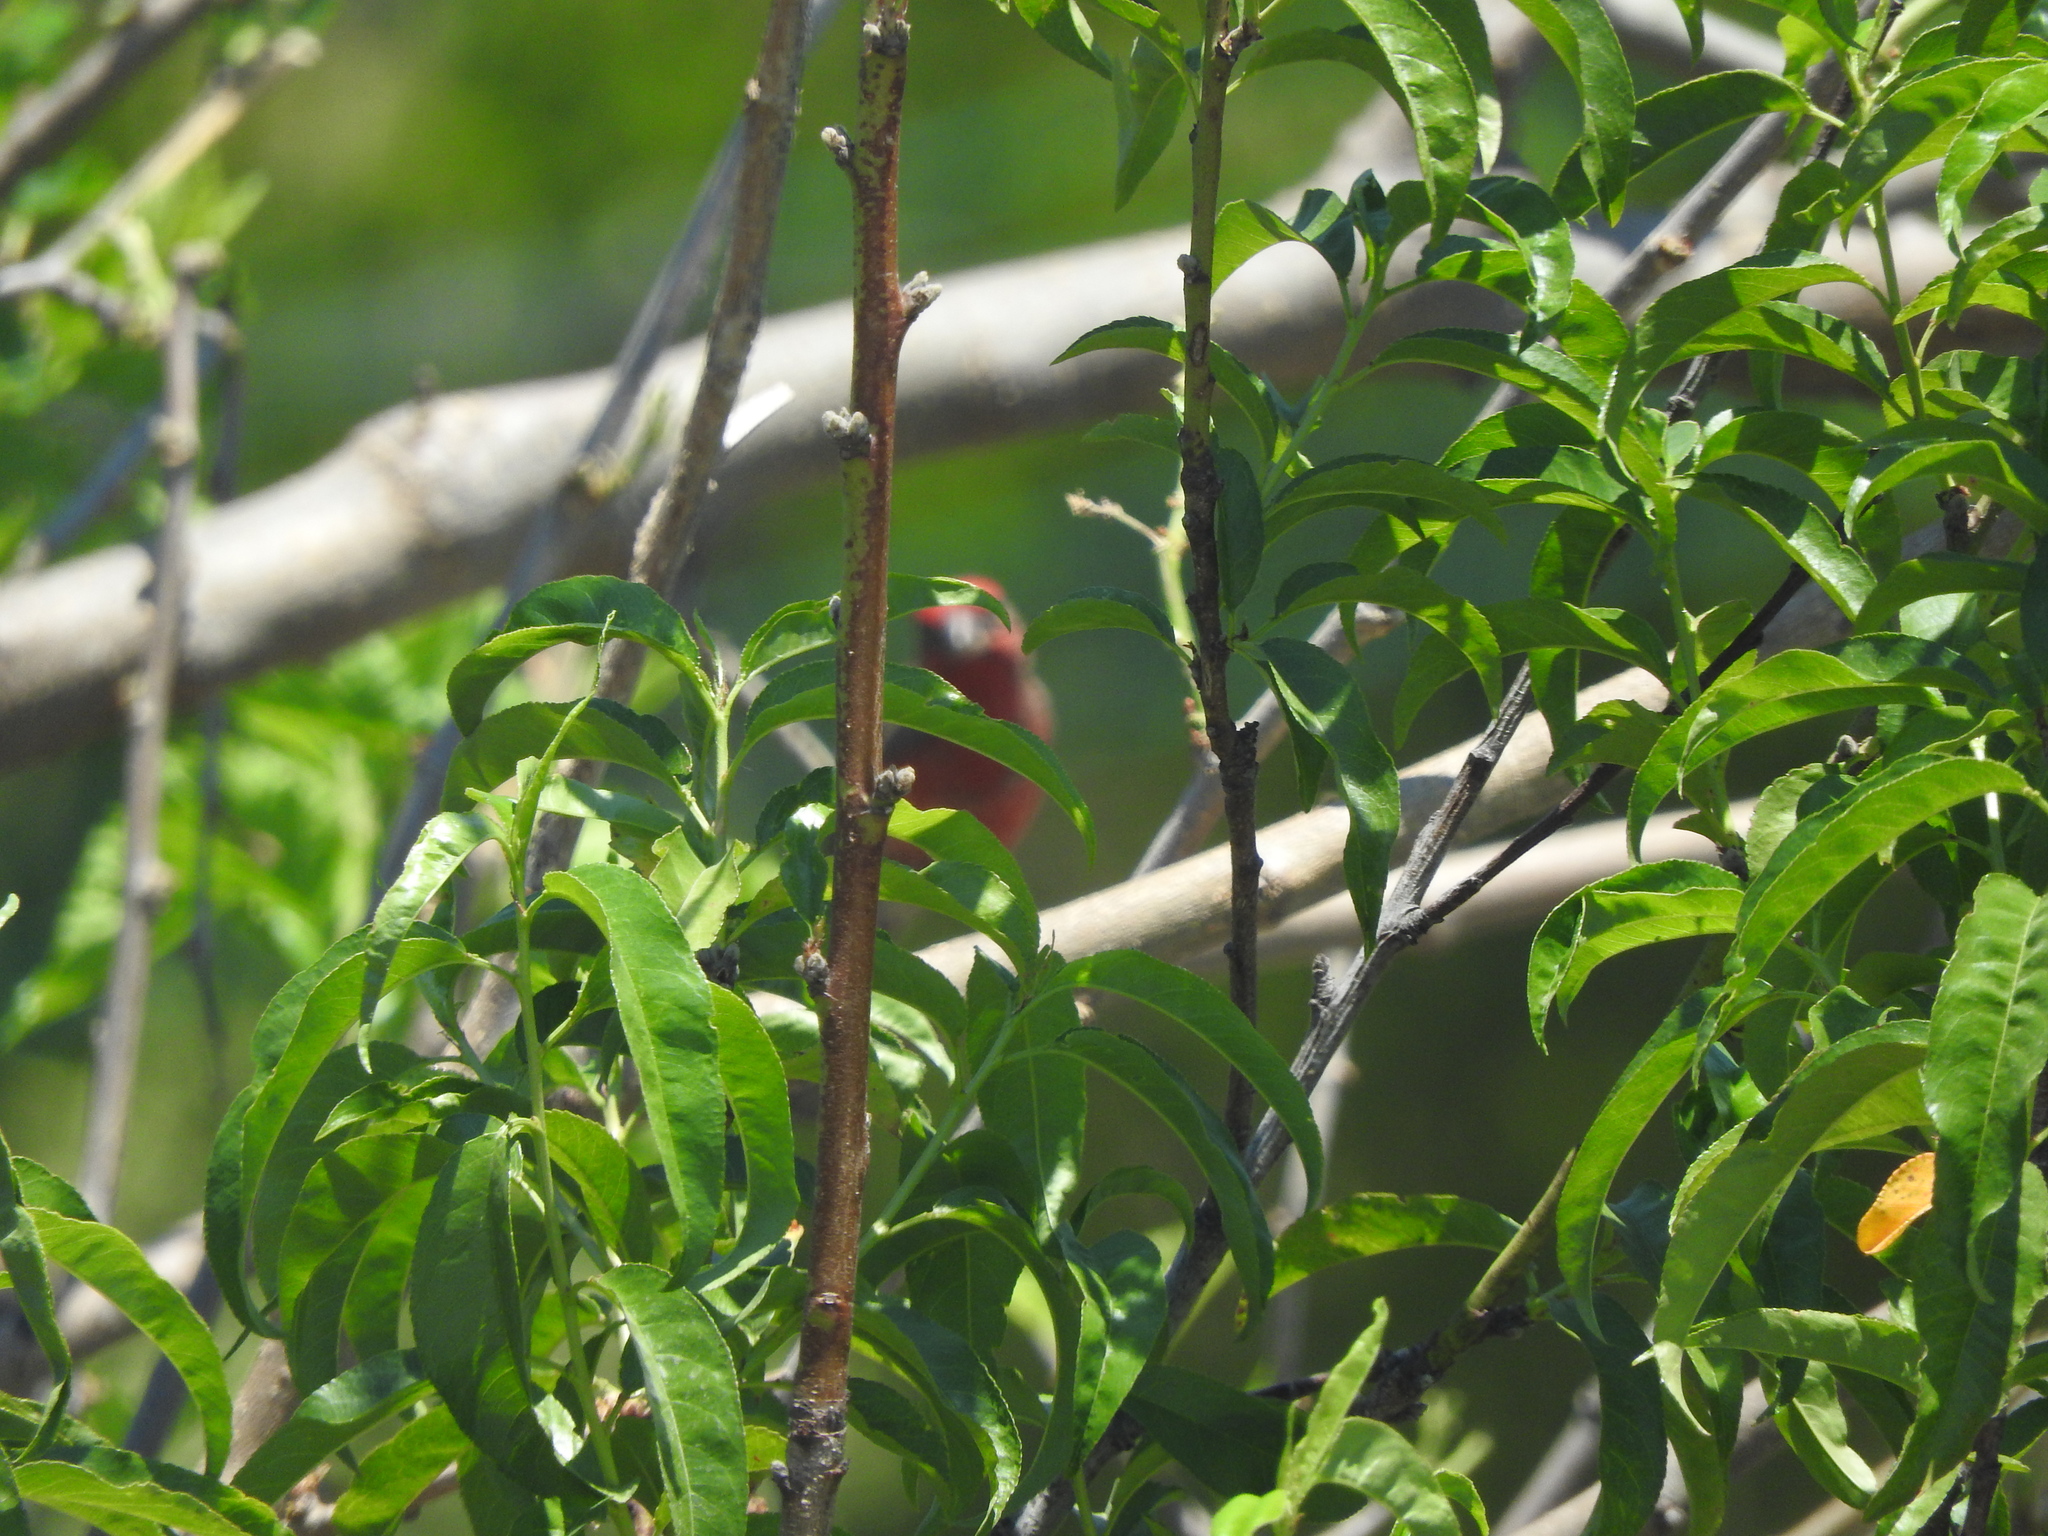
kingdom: Animalia
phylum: Chordata
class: Aves
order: Passeriformes
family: Fringillidae
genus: Haemorhous
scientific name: Haemorhous mexicanus
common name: House finch
